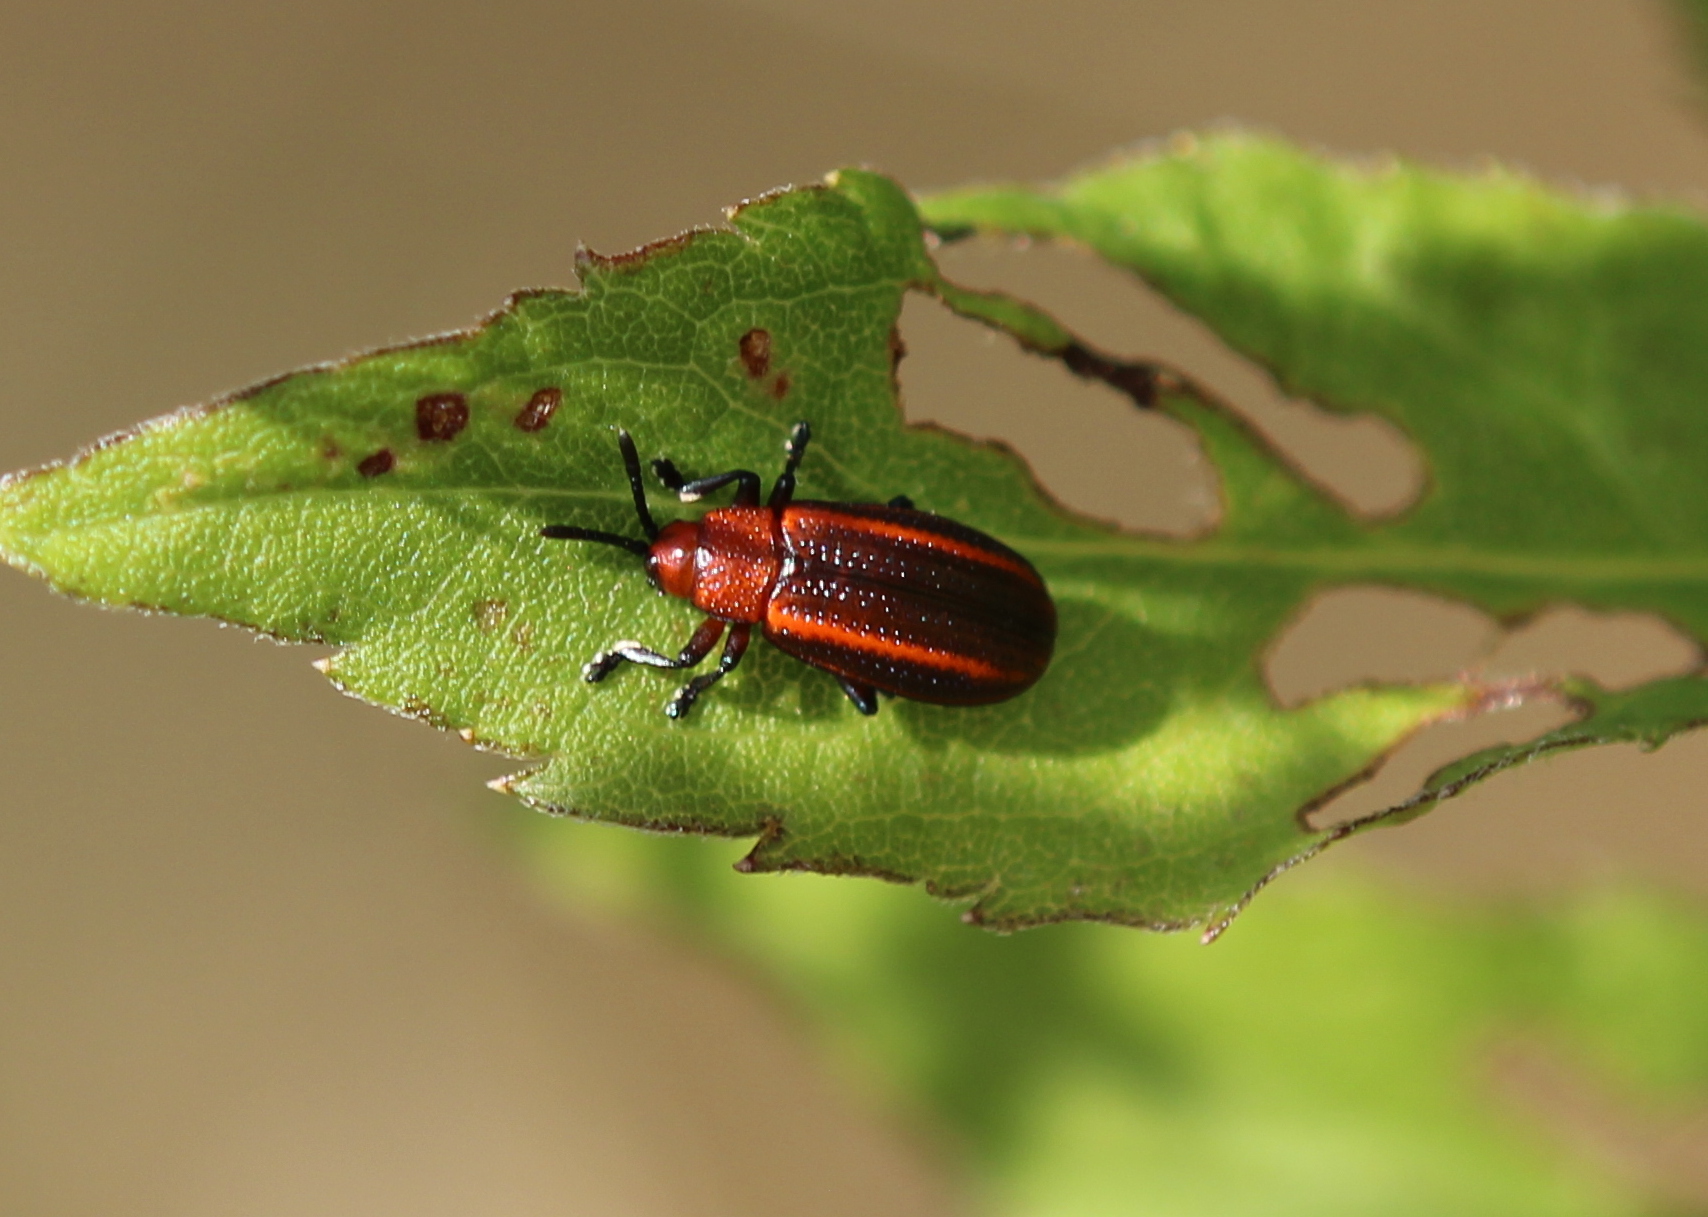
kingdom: Animalia
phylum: Arthropoda
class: Insecta
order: Coleoptera
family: Chrysomelidae
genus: Microrhopala
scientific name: Microrhopala vittata
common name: Goldenrod leaf miner beetle
